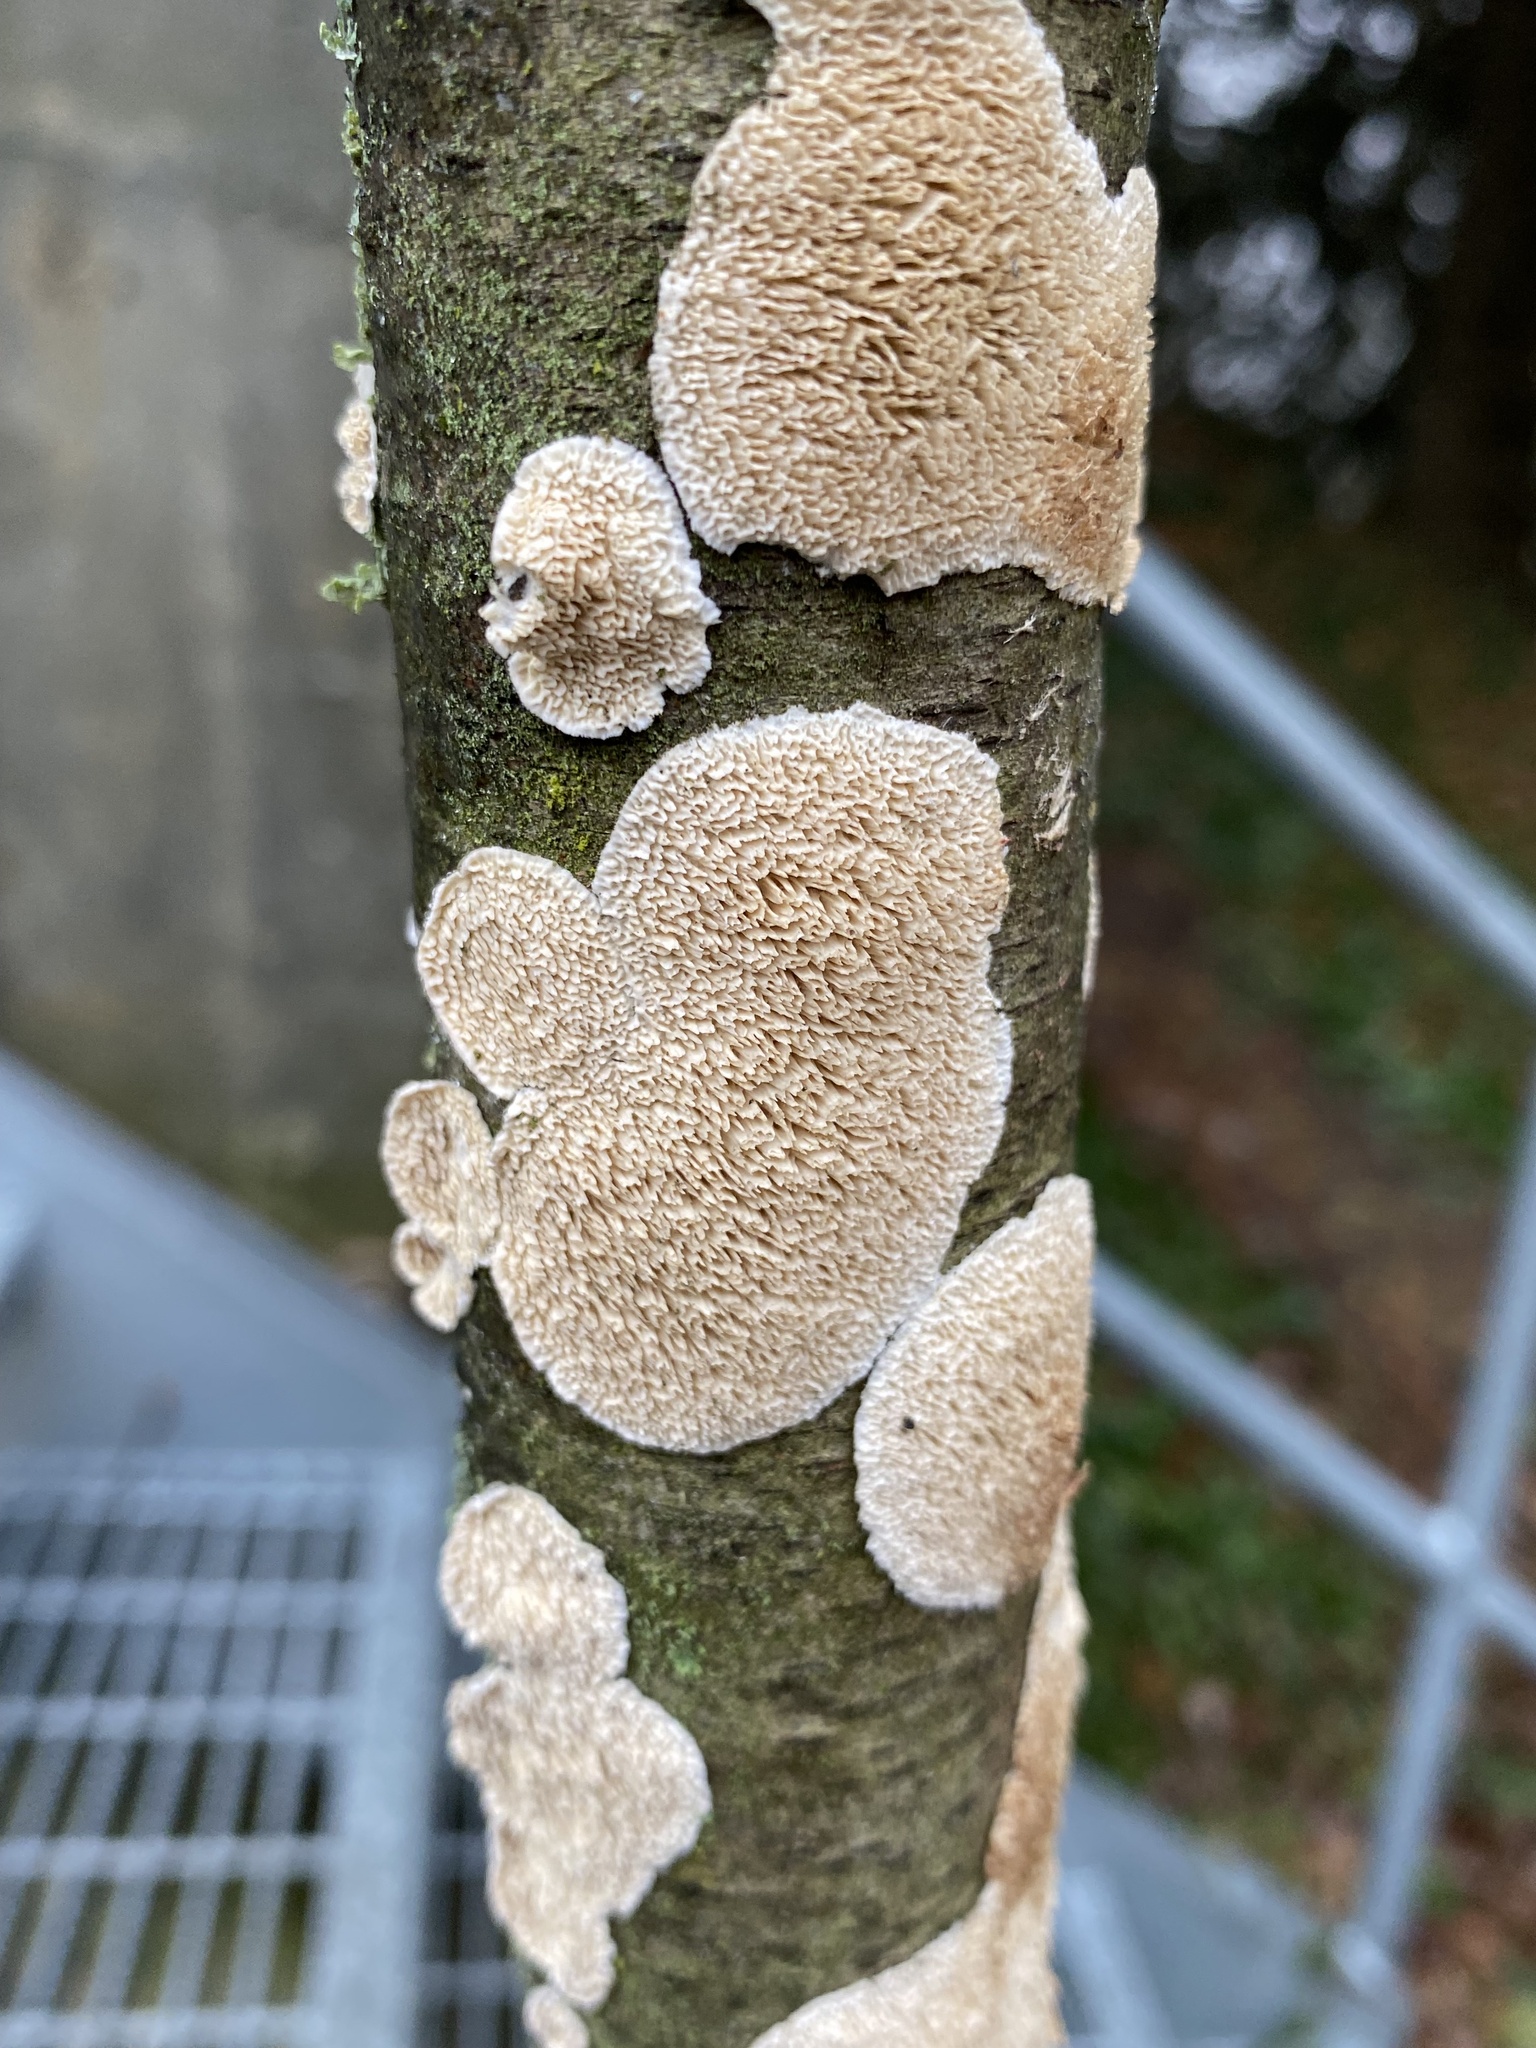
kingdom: Fungi
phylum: Basidiomycota
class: Agaricomycetes
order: Polyporales
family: Irpicaceae
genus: Irpex
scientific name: Irpex lacteus
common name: Milk-white toothed polypore
